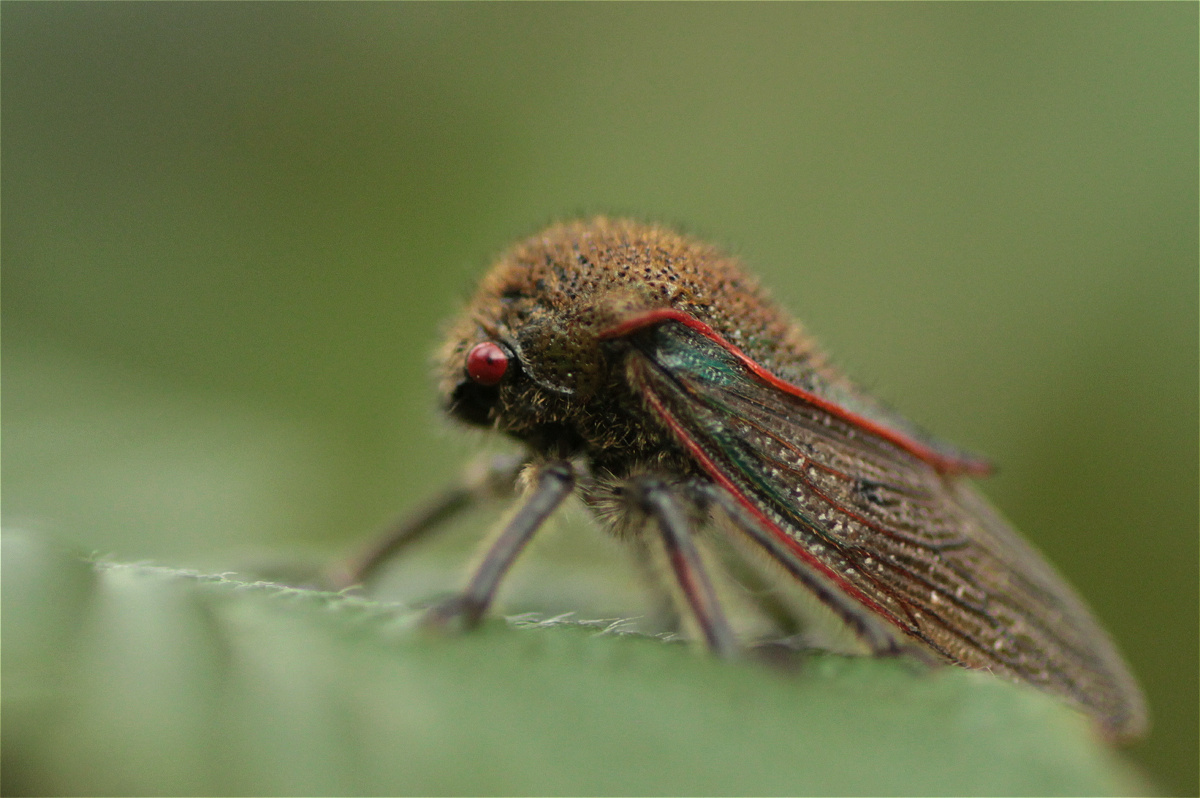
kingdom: Animalia
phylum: Arthropoda
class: Insecta
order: Hemiptera
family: Membracidae
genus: Metcalfiella
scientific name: Metcalfiella erectum
